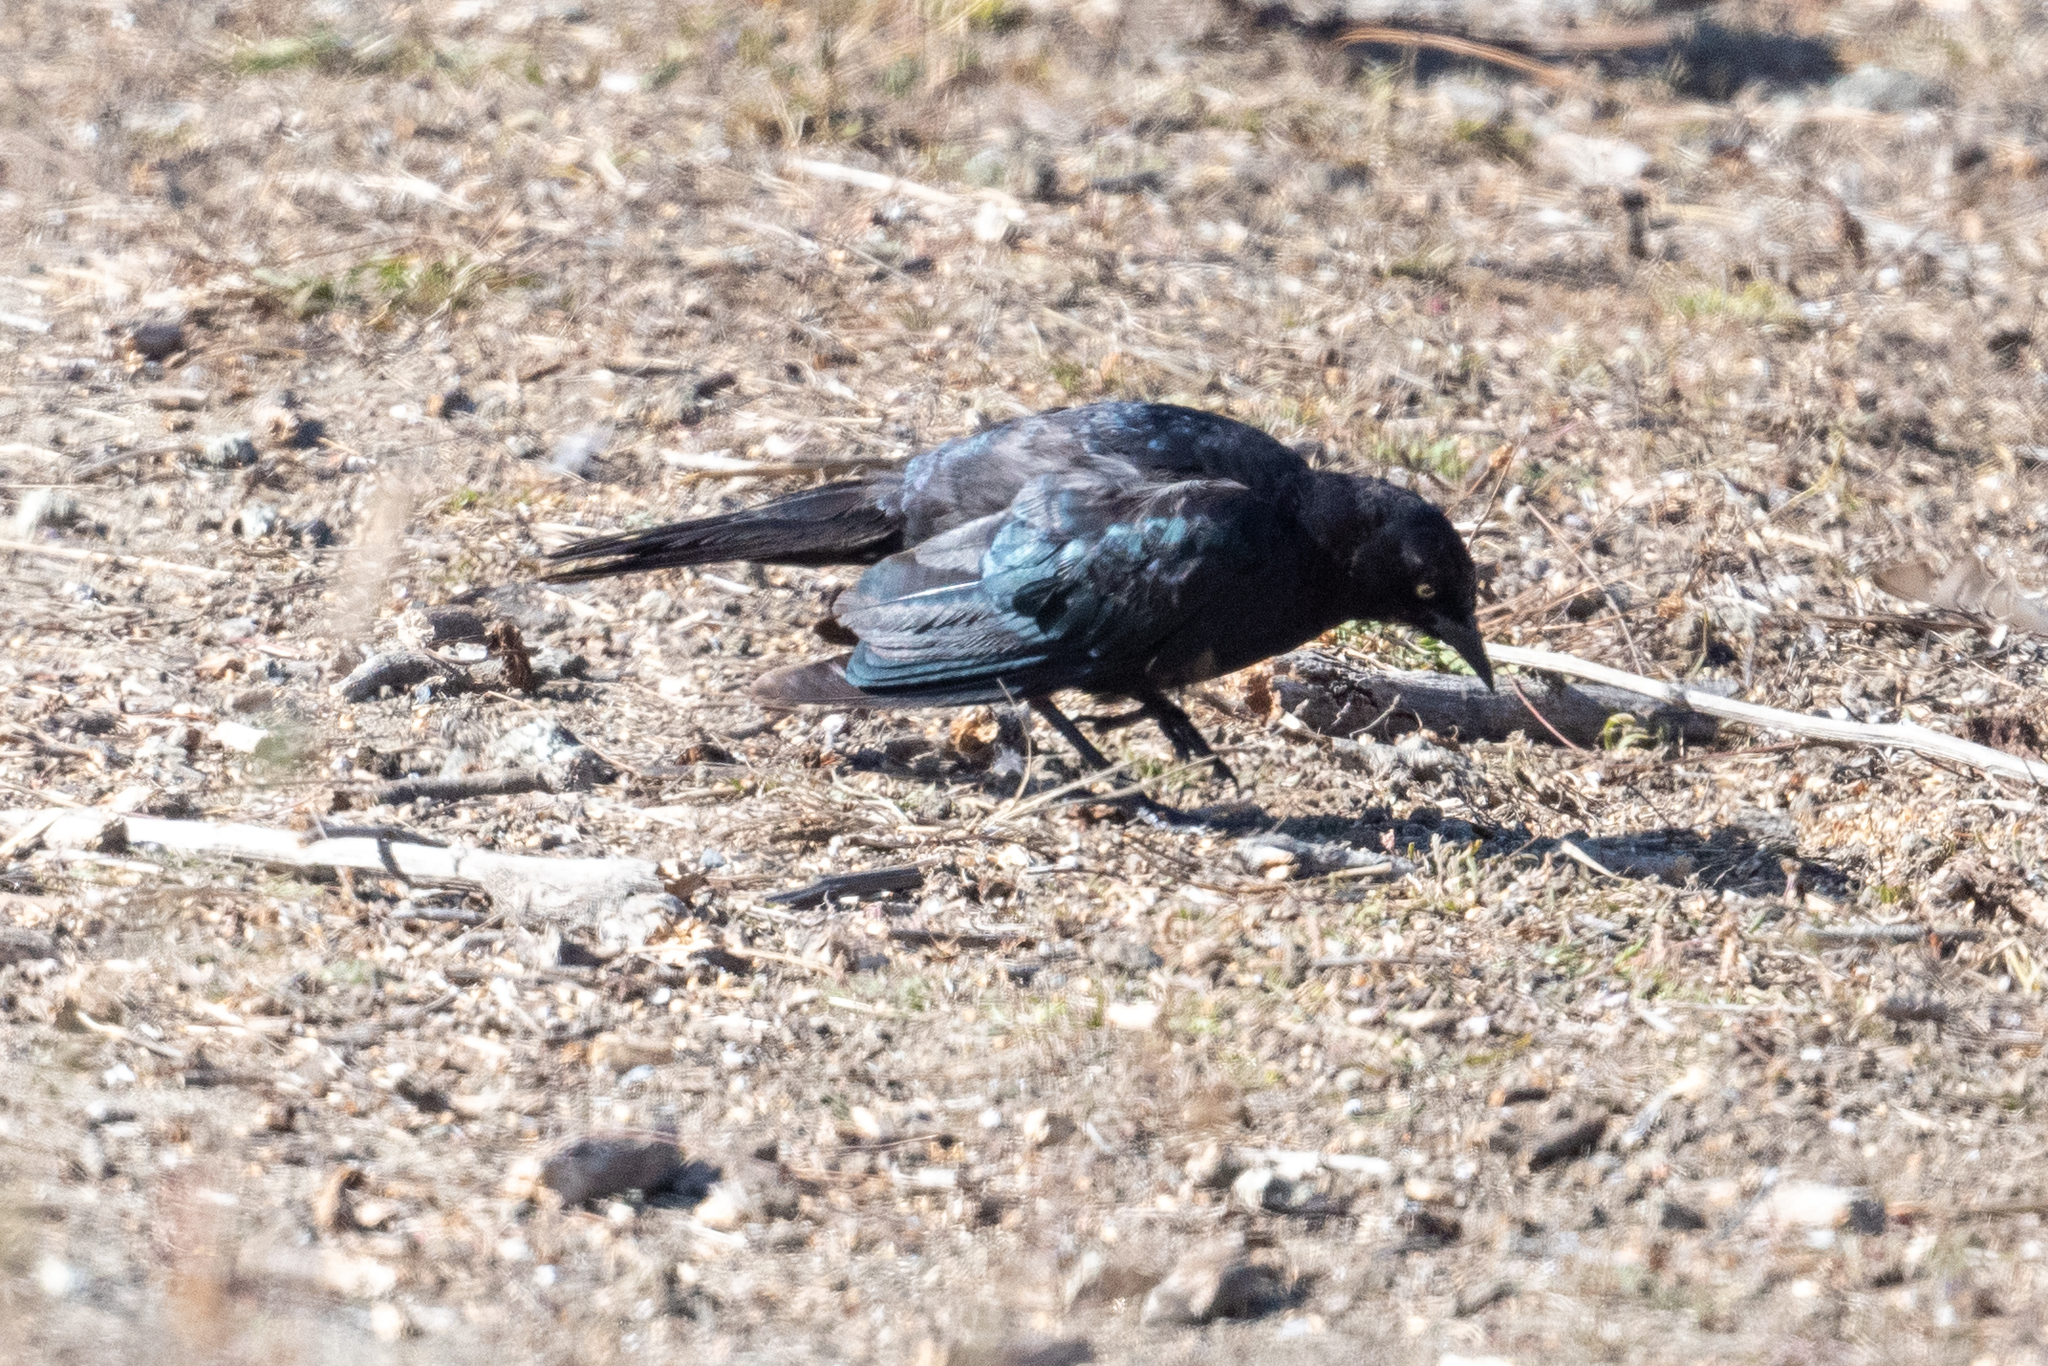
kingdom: Animalia
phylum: Chordata
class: Aves
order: Passeriformes
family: Icteridae
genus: Euphagus
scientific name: Euphagus cyanocephalus
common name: Brewer's blackbird
